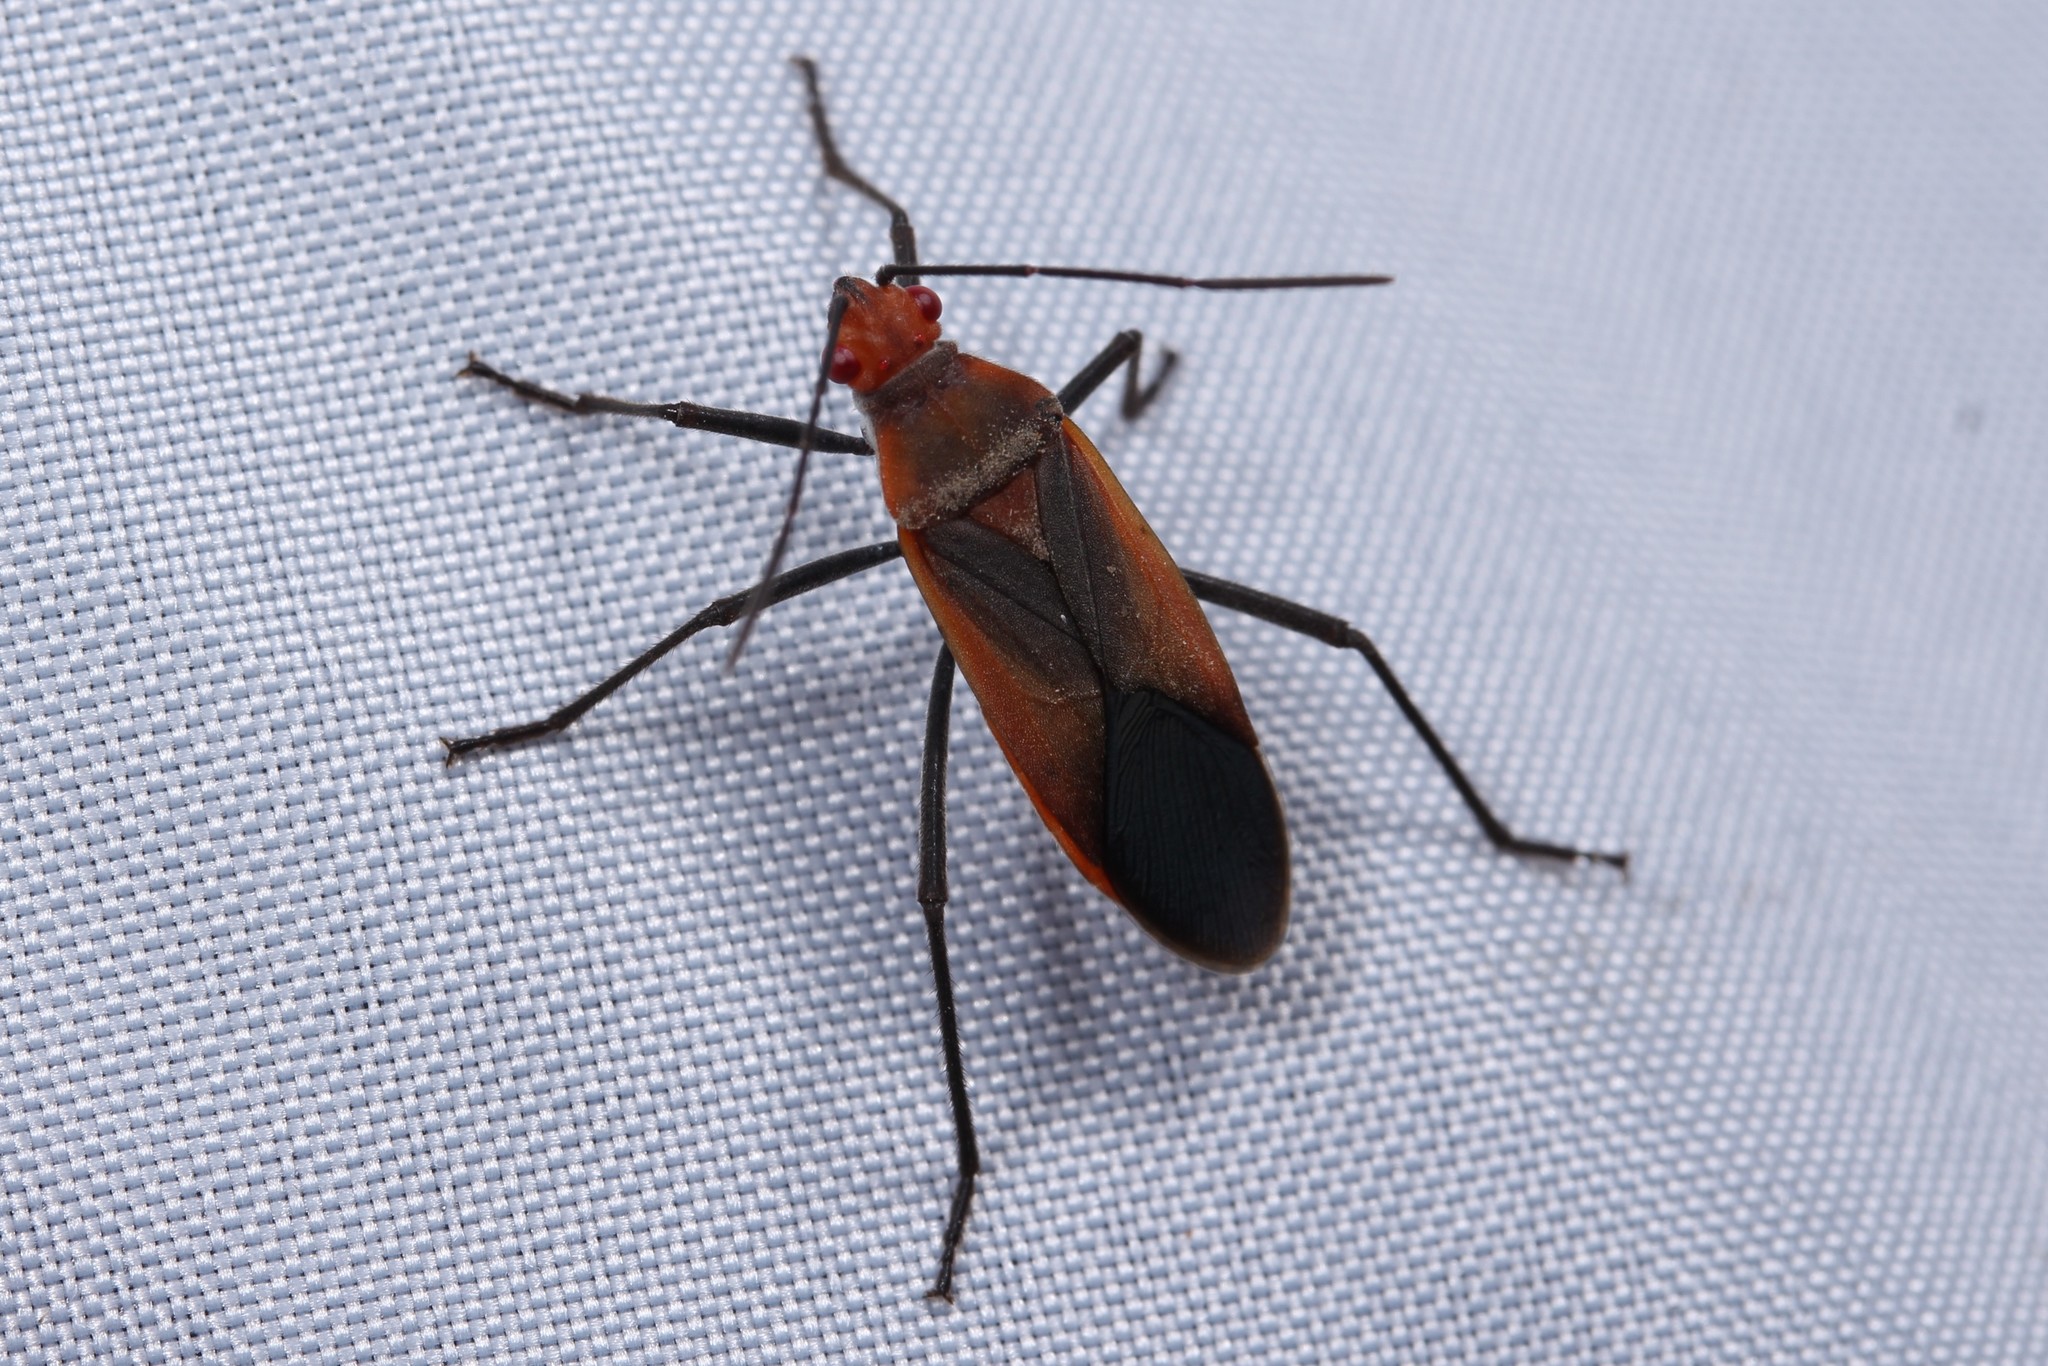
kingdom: Animalia
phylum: Arthropoda
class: Insecta
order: Hemiptera
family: Rhopalidae
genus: Leptocoris
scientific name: Leptocoris vicinus
